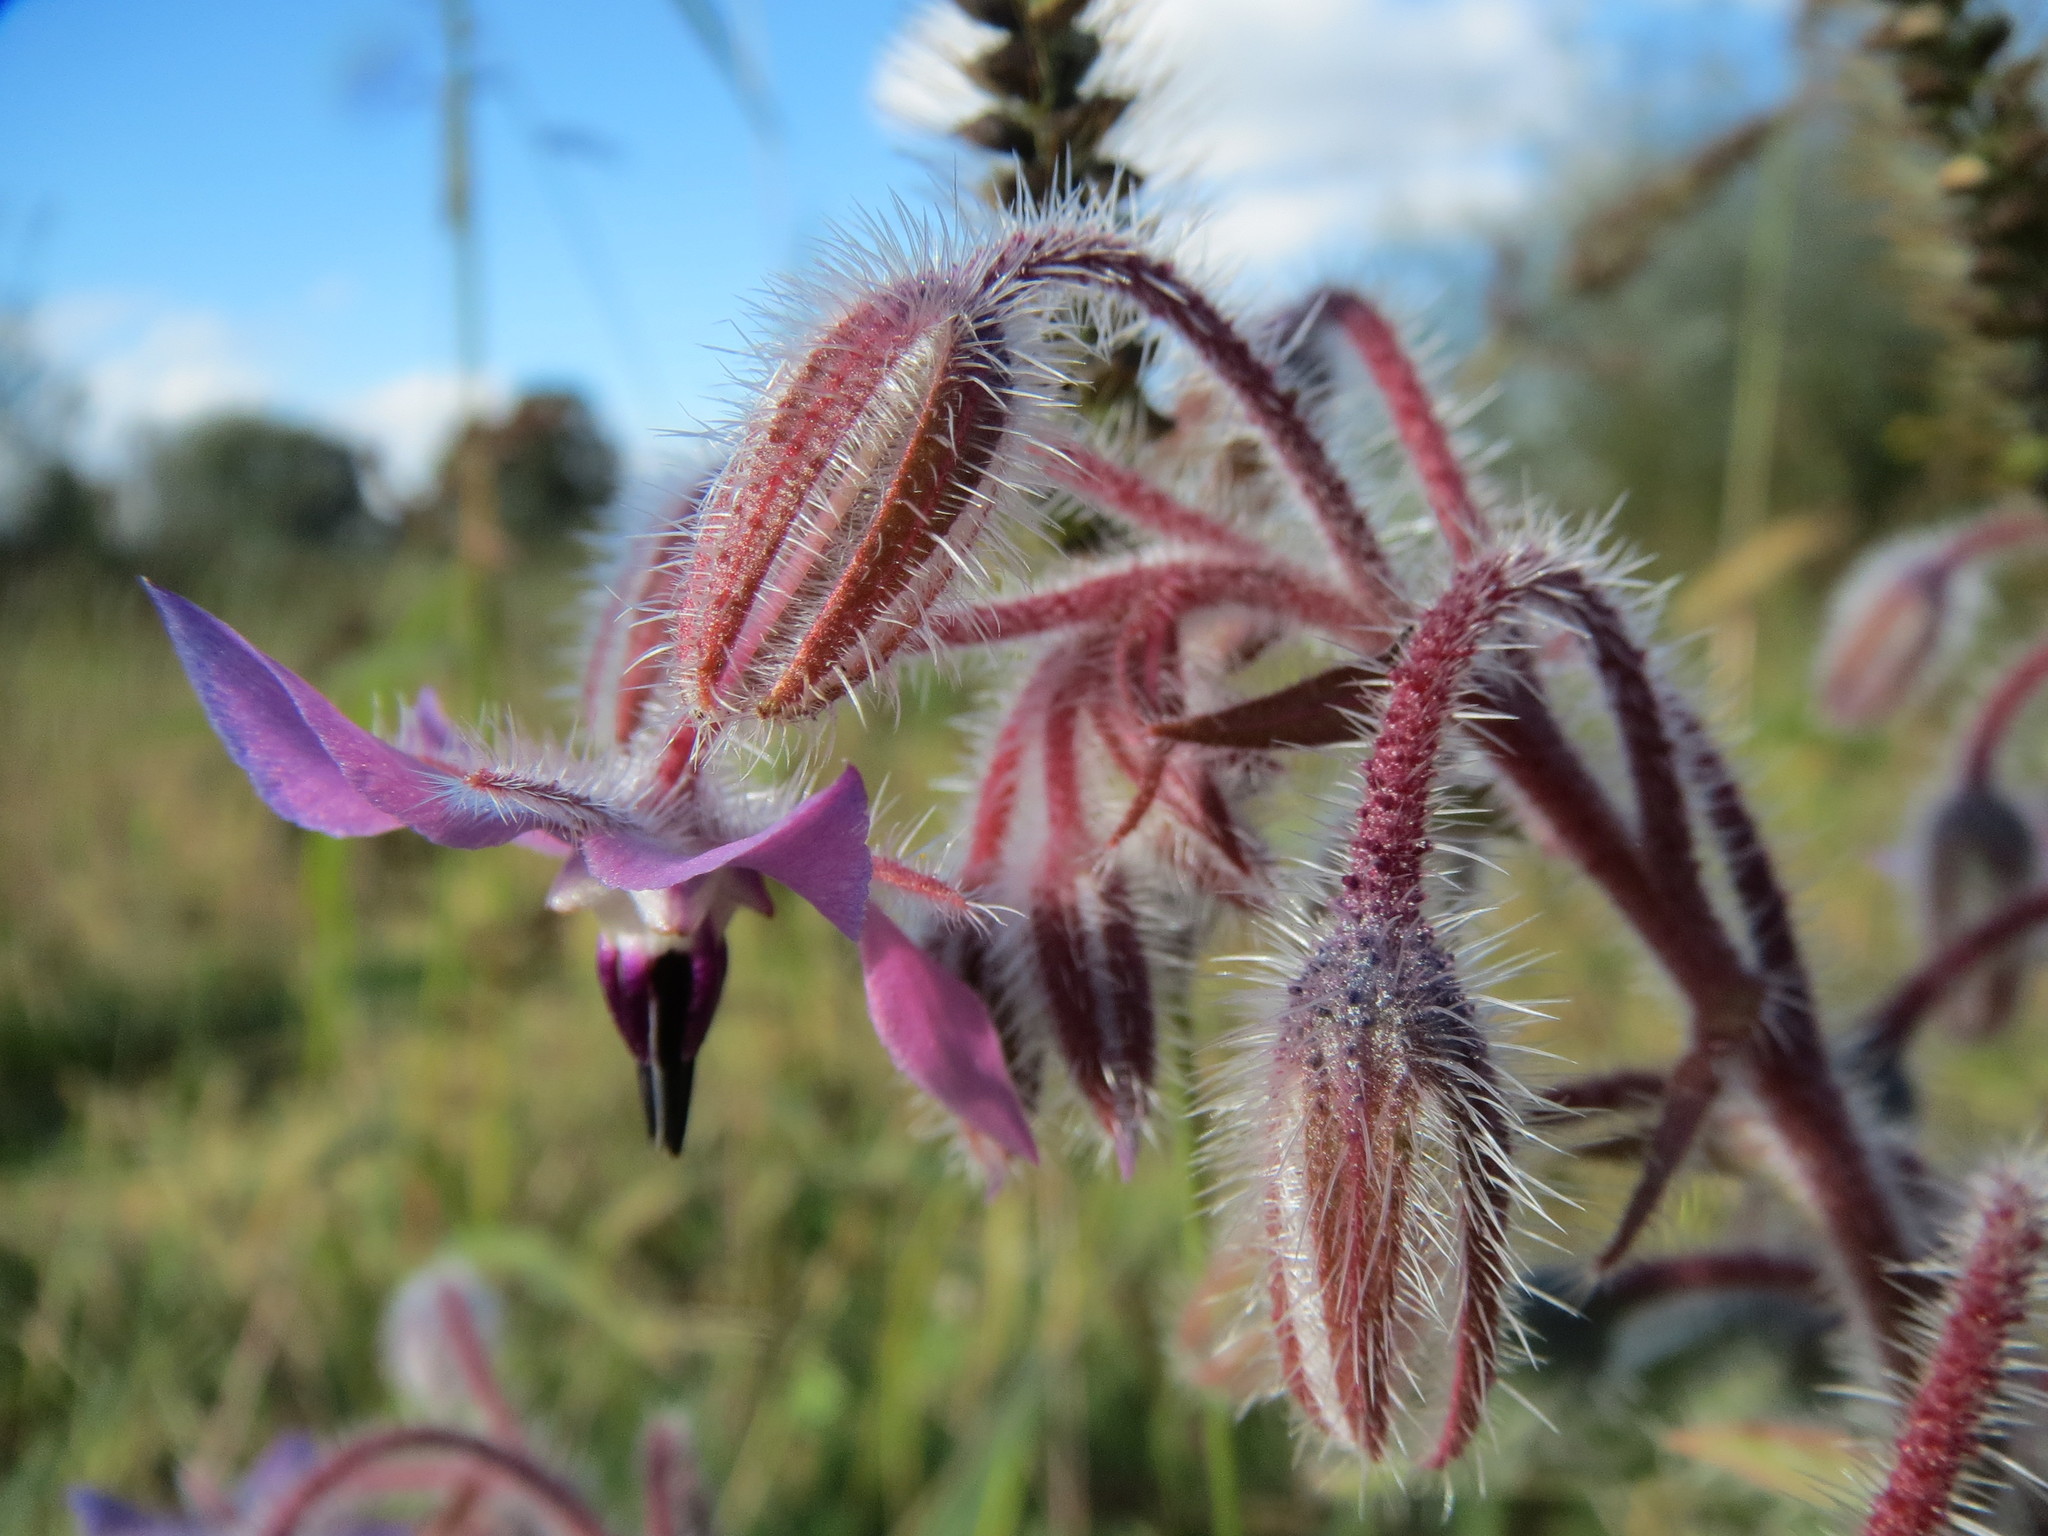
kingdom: Plantae
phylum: Tracheophyta
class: Magnoliopsida
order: Boraginales
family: Boraginaceae
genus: Borago
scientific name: Borago officinalis
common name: Borage
